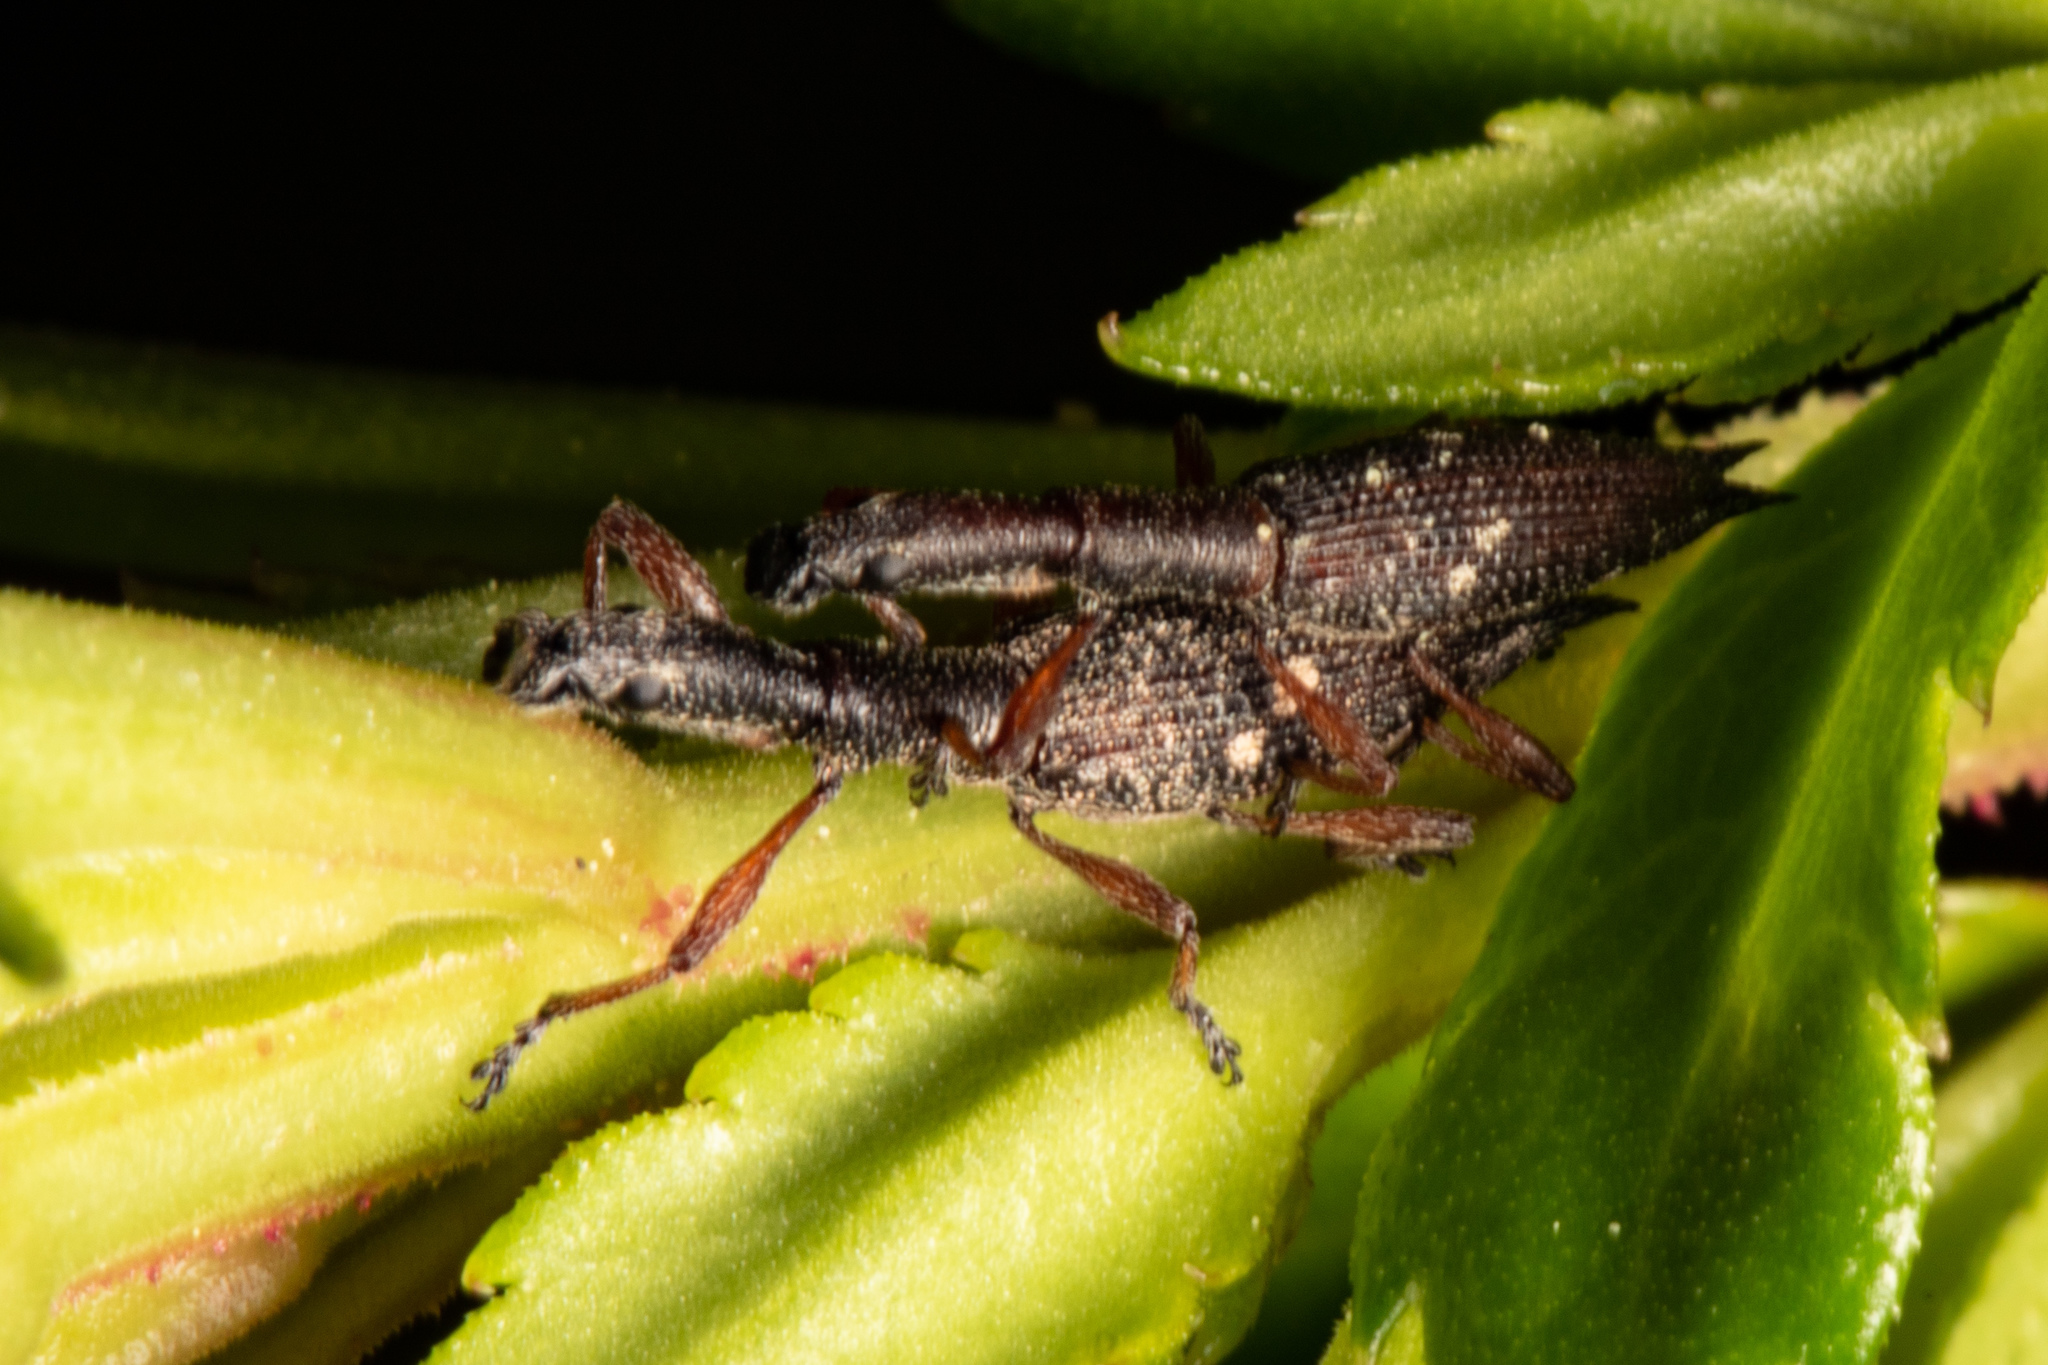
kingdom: Animalia
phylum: Arthropoda
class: Insecta
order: Coleoptera
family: Curculionidae
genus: Rhadinosomus
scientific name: Rhadinosomus acuminatus
